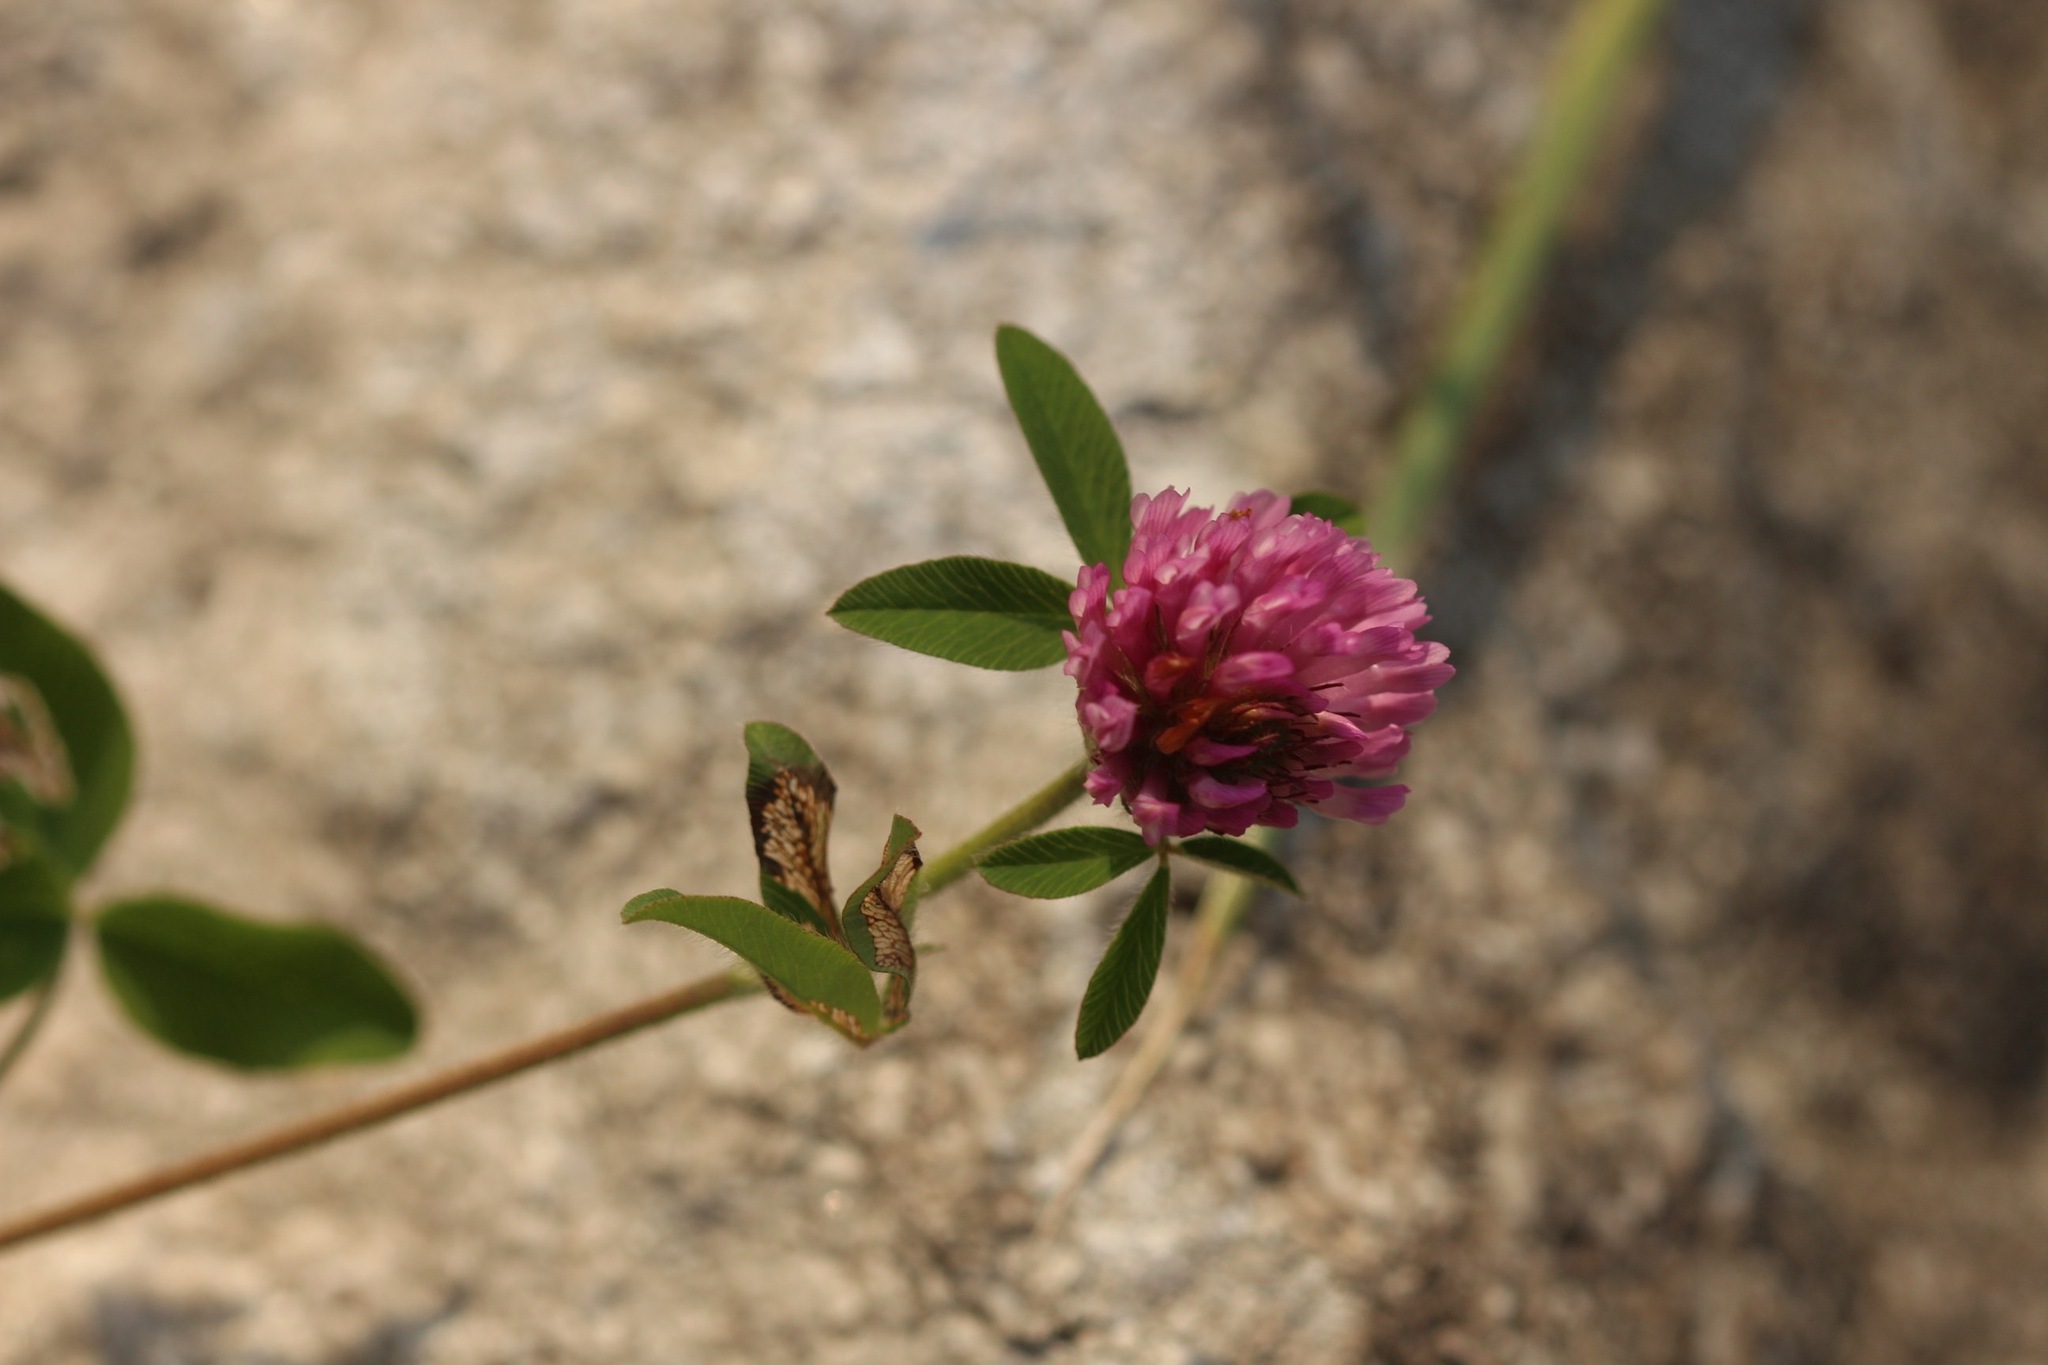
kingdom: Plantae
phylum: Tracheophyta
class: Magnoliopsida
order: Fabales
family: Fabaceae
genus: Trifolium
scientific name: Trifolium pratense
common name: Red clover
